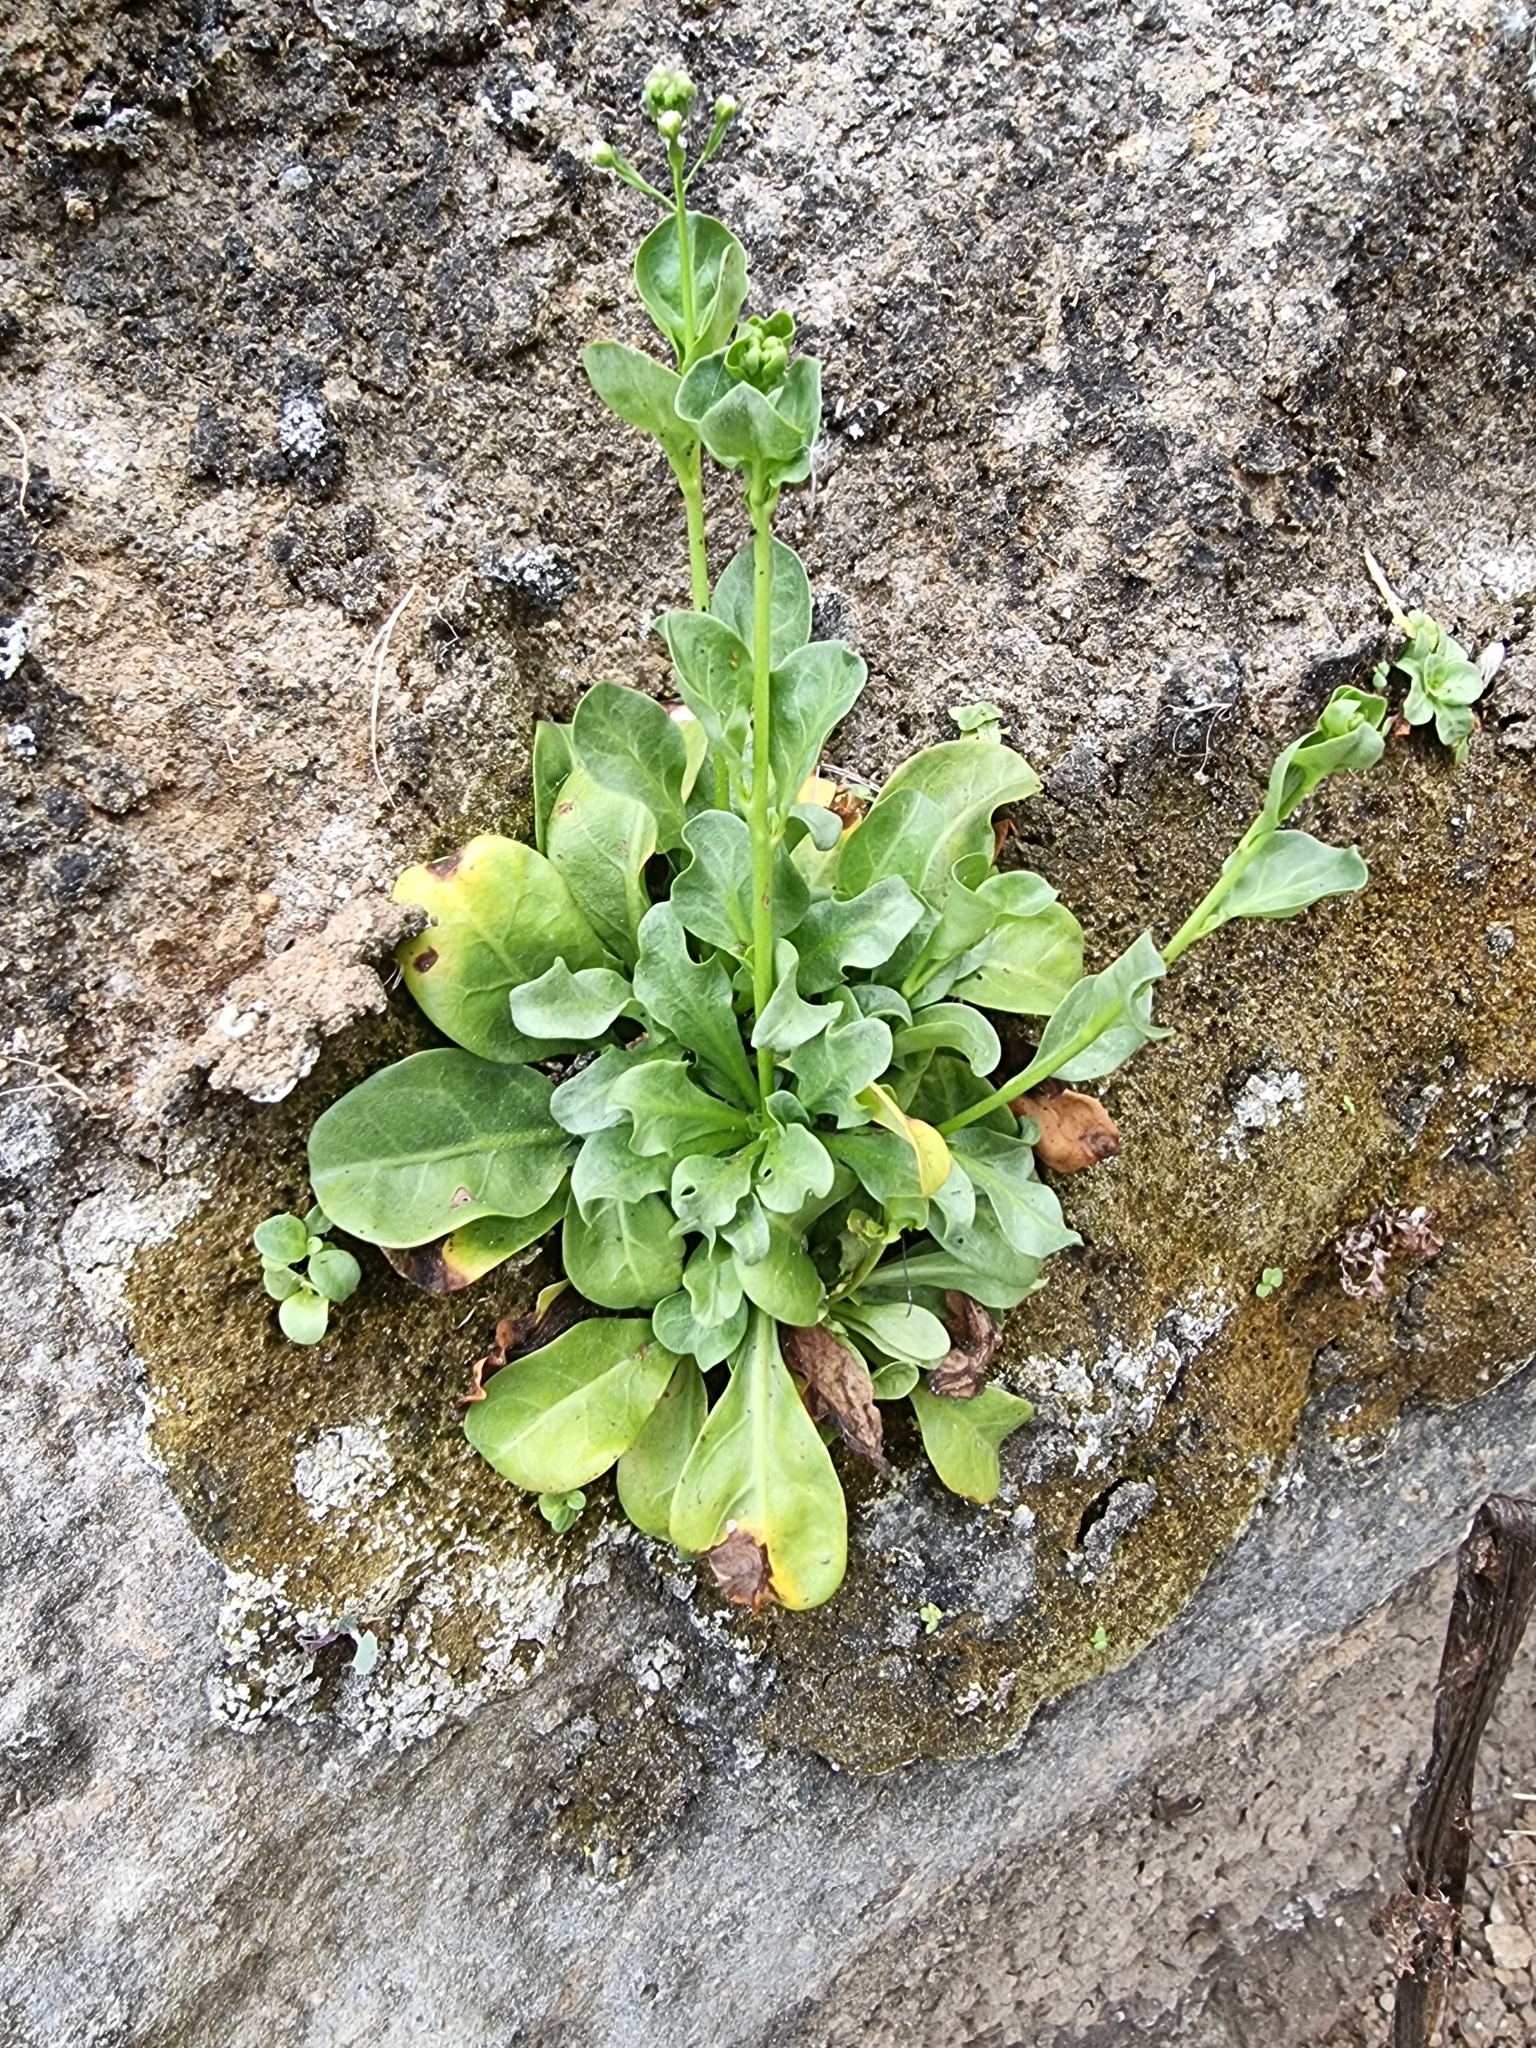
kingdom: Plantae
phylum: Tracheophyta
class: Magnoliopsida
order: Ericales
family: Primulaceae
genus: Samolus
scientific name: Samolus valerandi
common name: Brookweed
